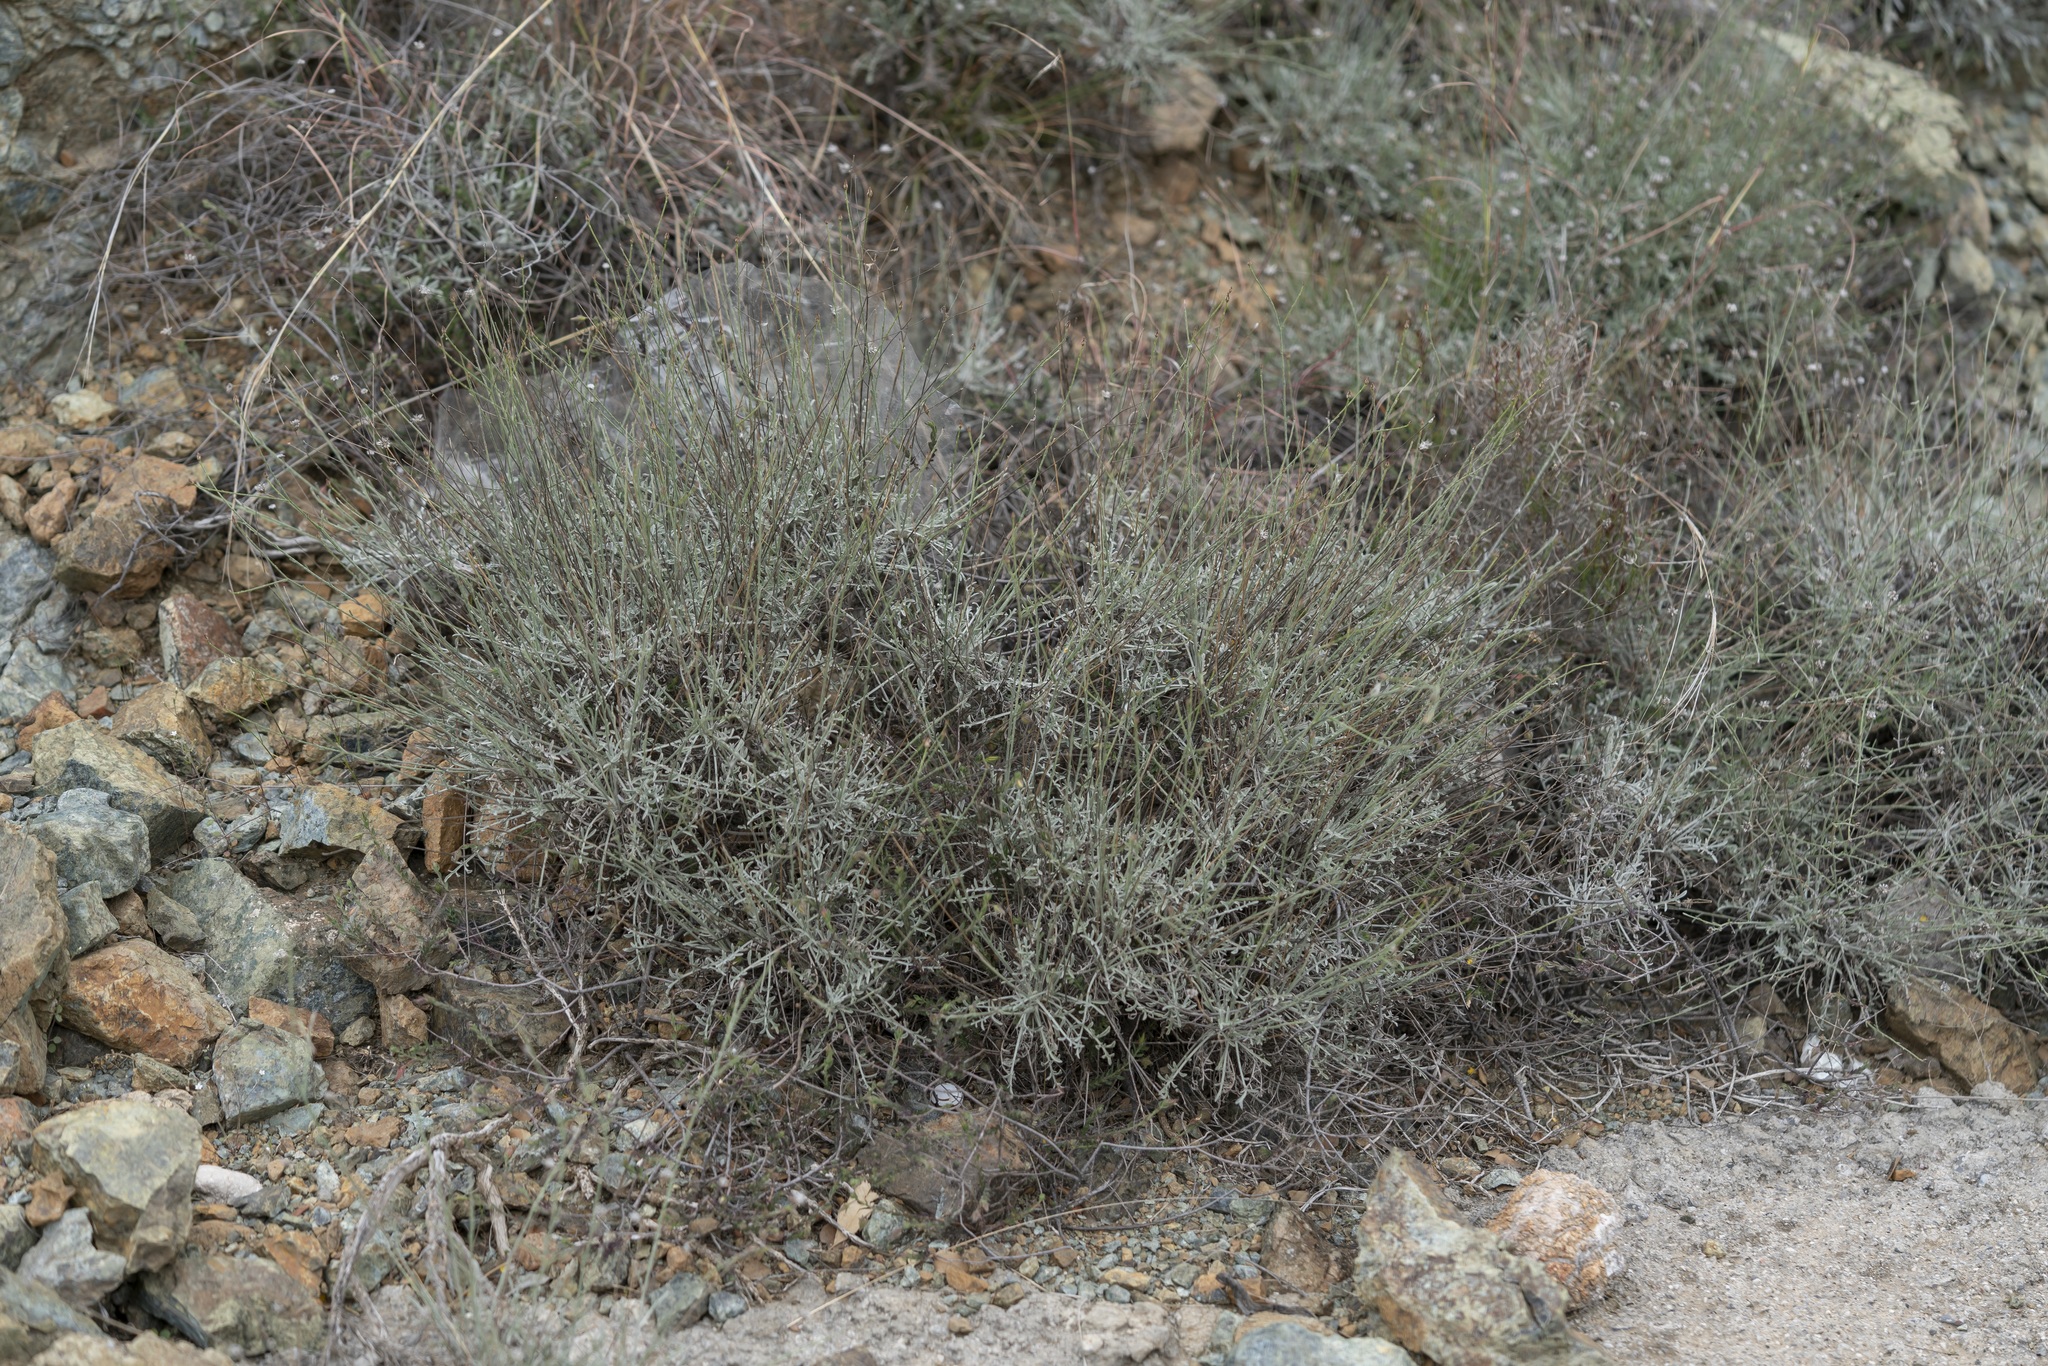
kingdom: Plantae
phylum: Tracheophyta
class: Magnoliopsida
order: Asterales
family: Asteraceae
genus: Centaurea
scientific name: Centaurea cariensis
